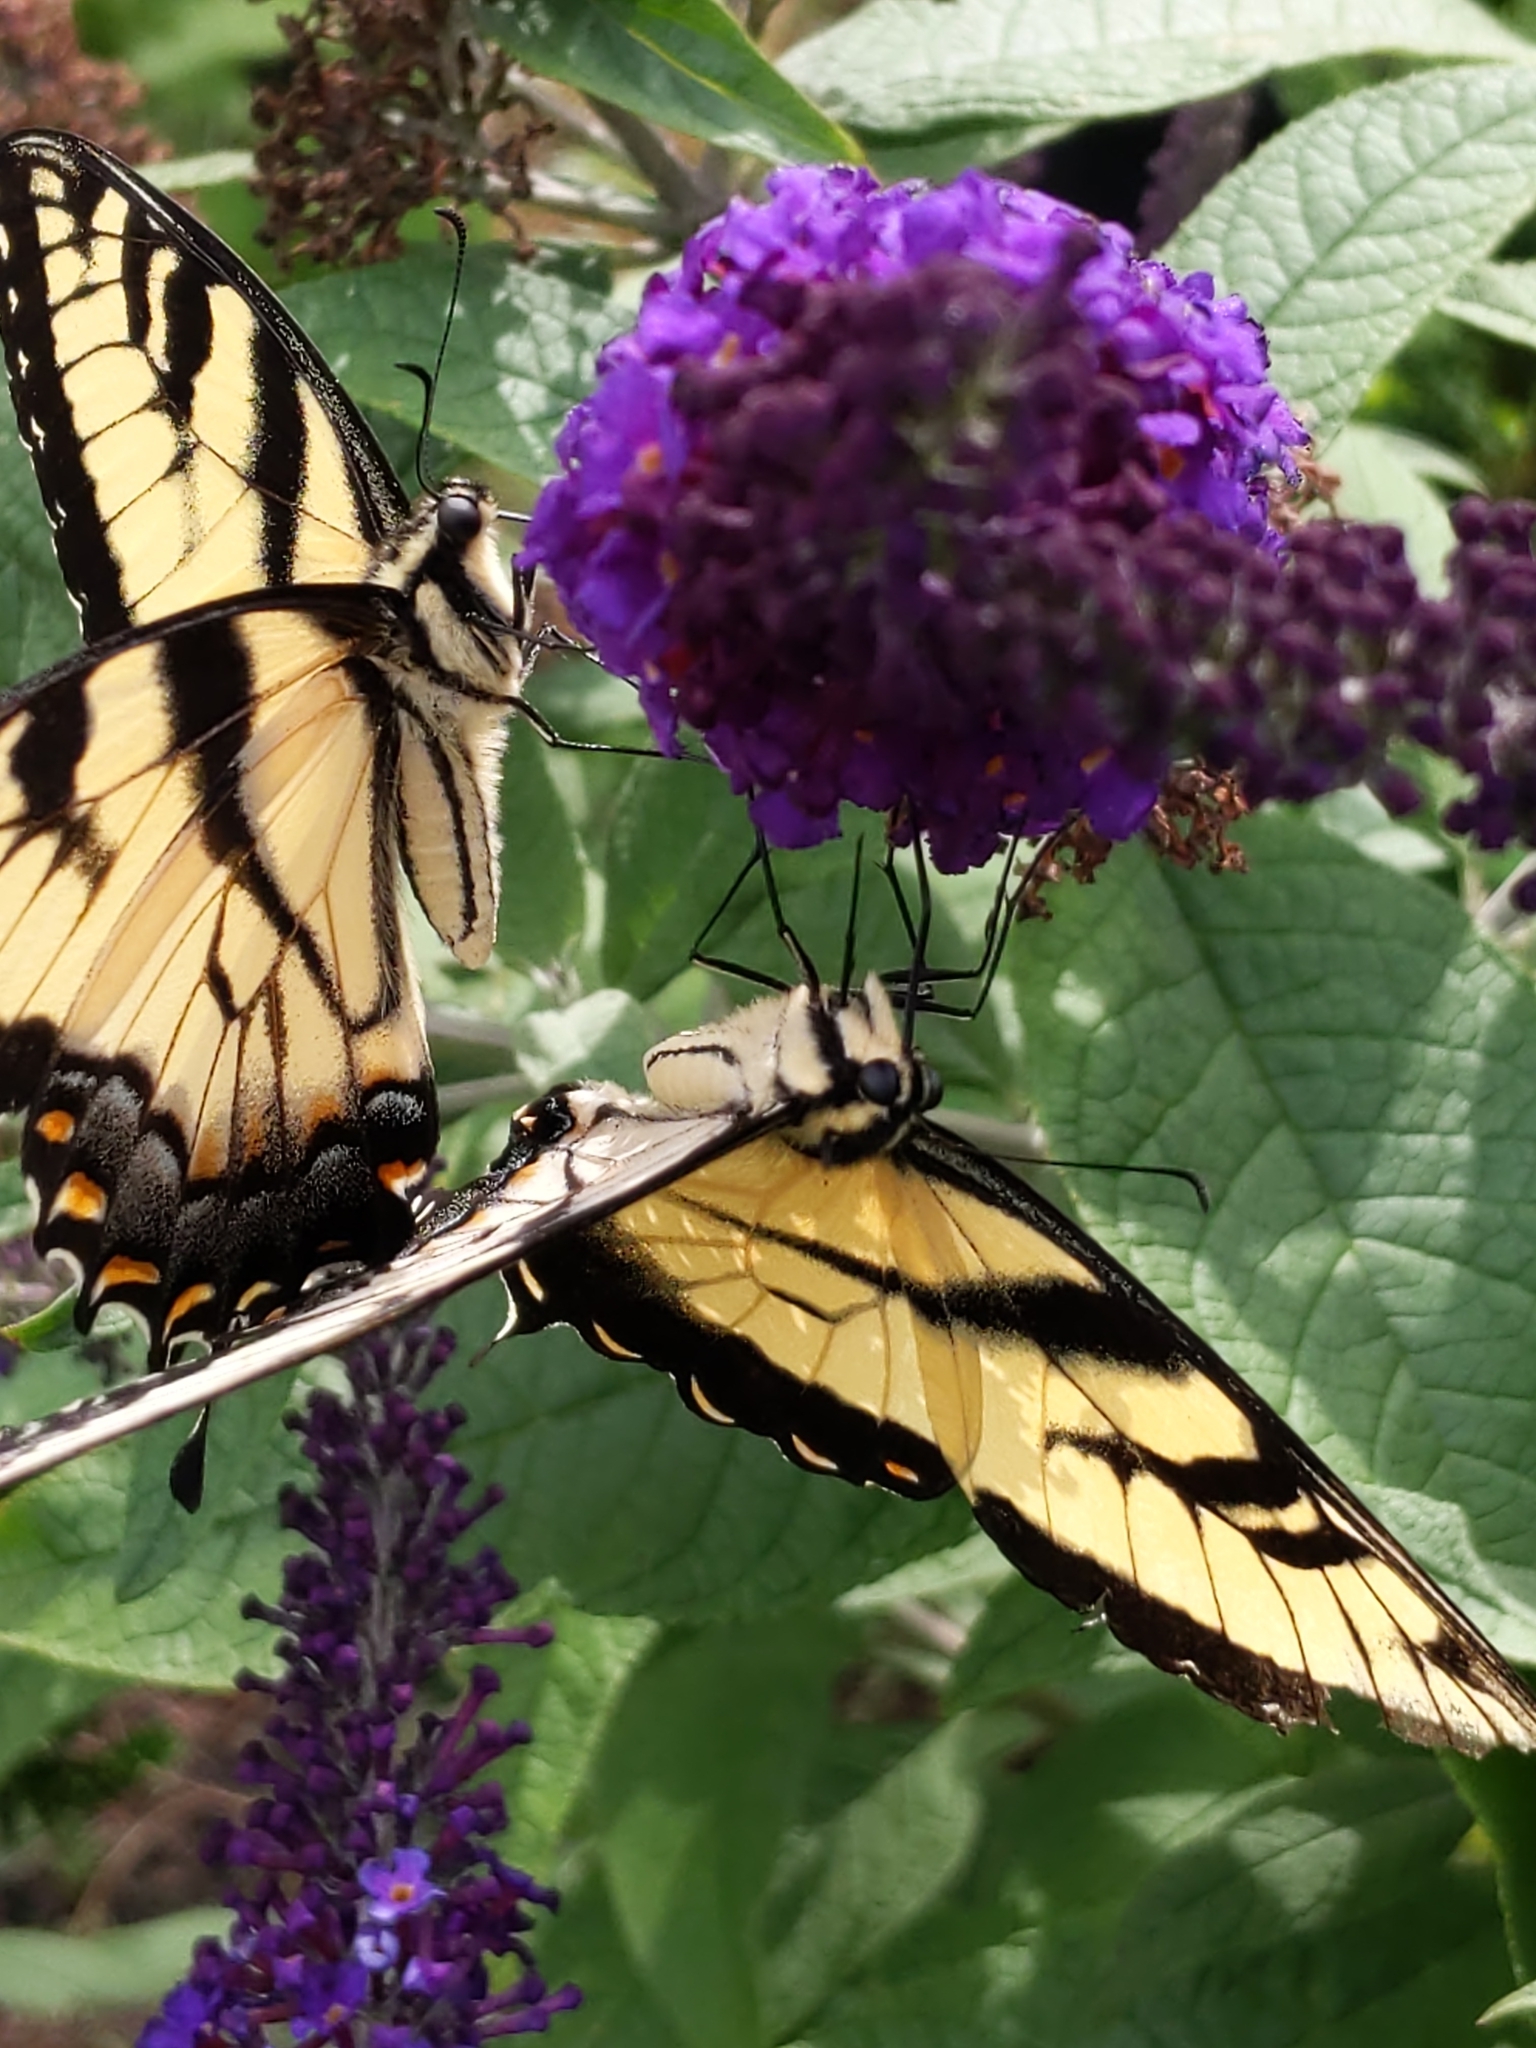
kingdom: Animalia
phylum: Arthropoda
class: Insecta
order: Lepidoptera
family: Papilionidae
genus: Papilio
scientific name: Papilio glaucus
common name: Tiger swallowtail
